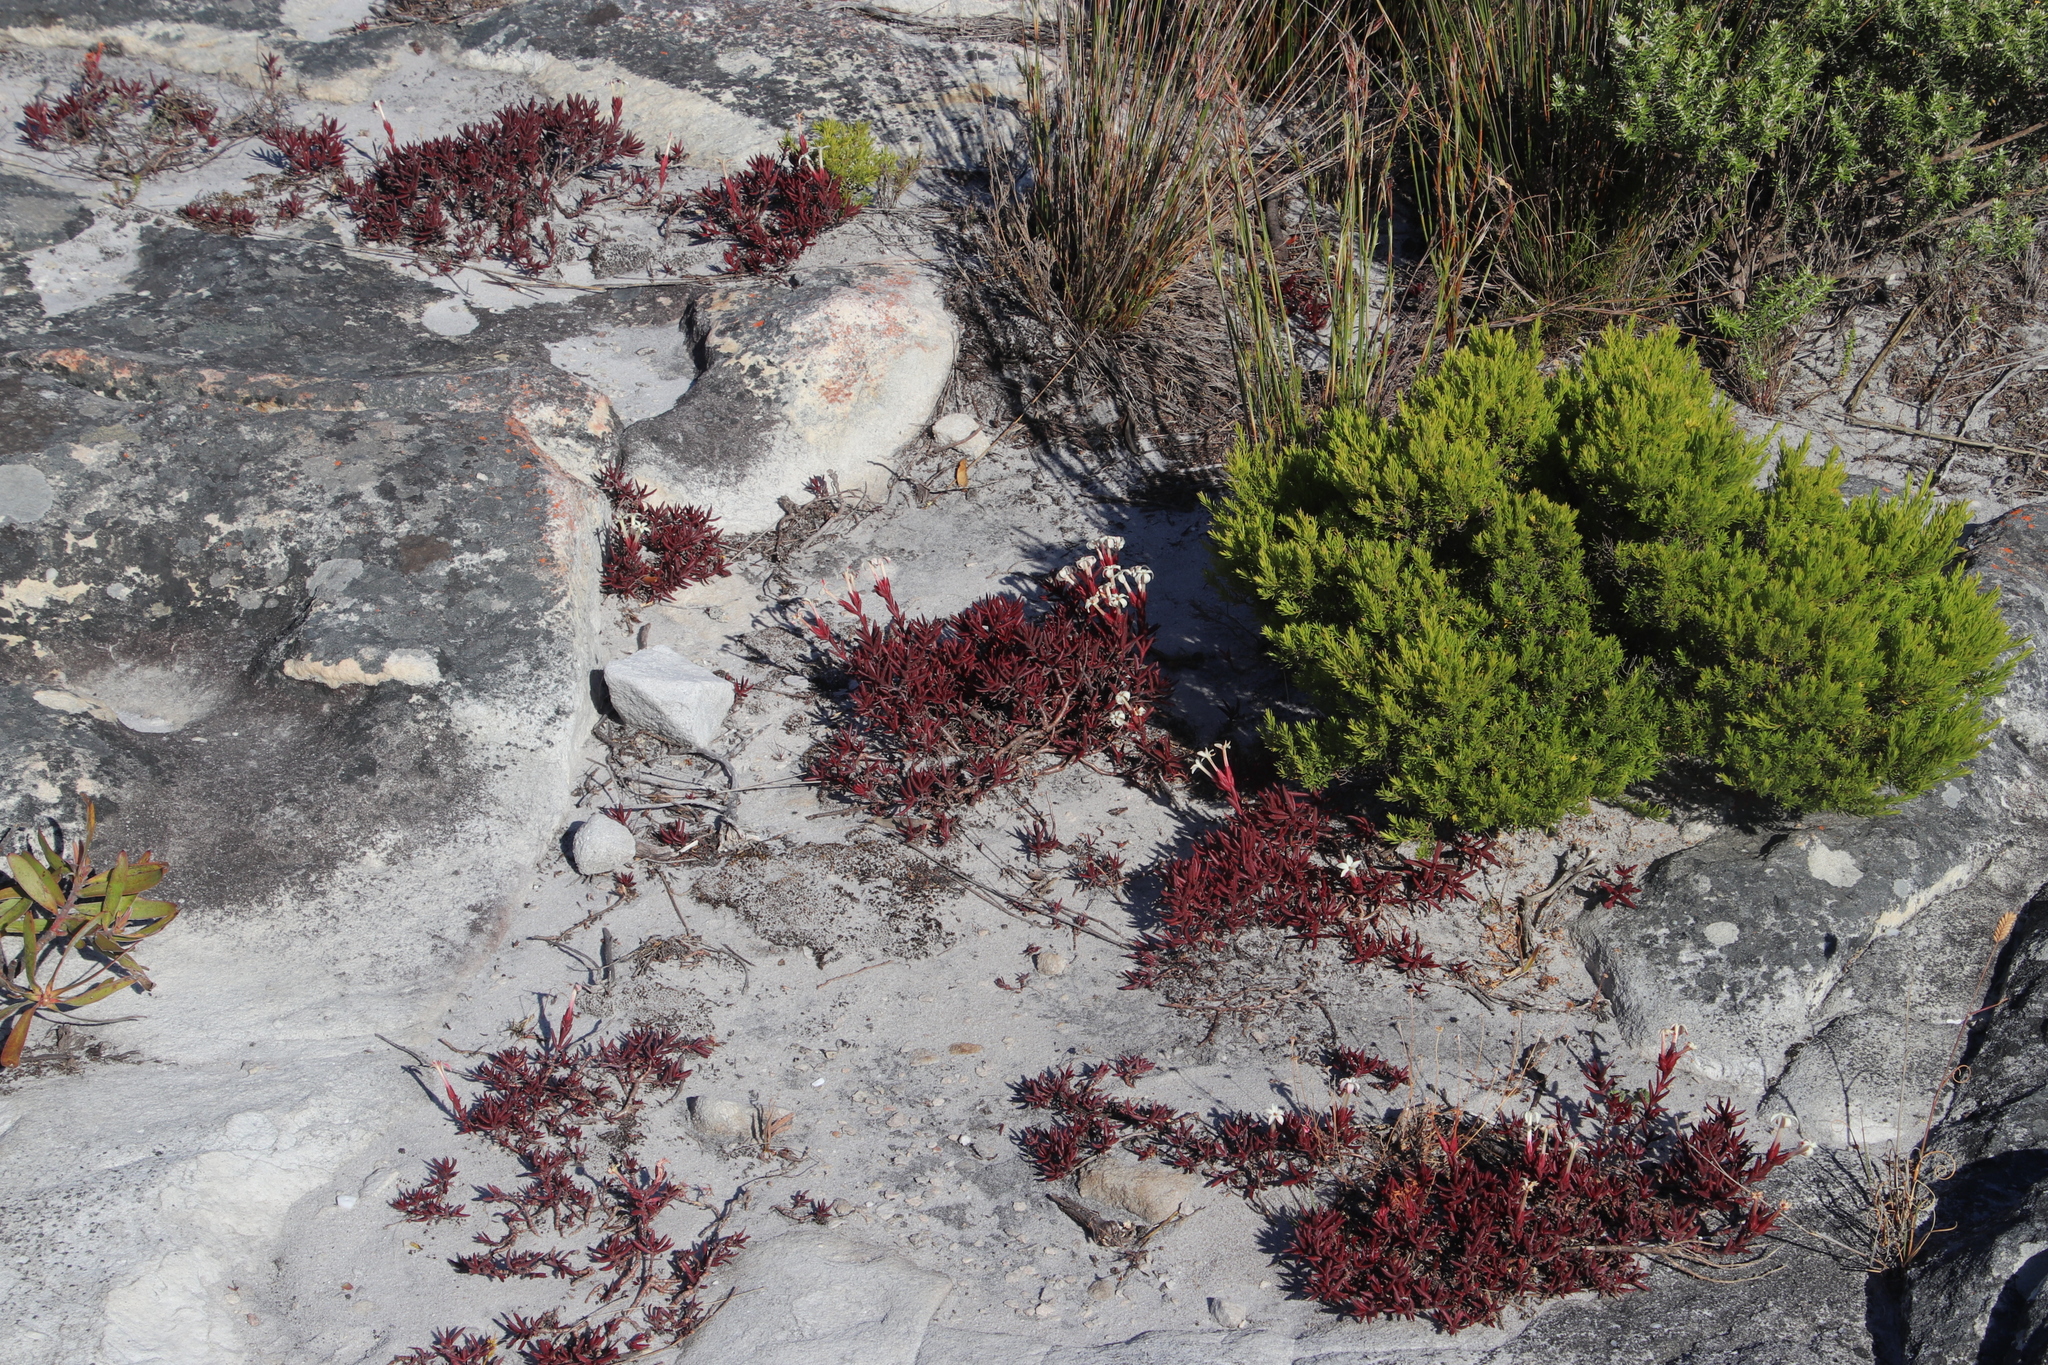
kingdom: Plantae
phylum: Tracheophyta
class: Magnoliopsida
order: Saxifragales
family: Crassulaceae
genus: Crassula
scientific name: Crassula obtusa
